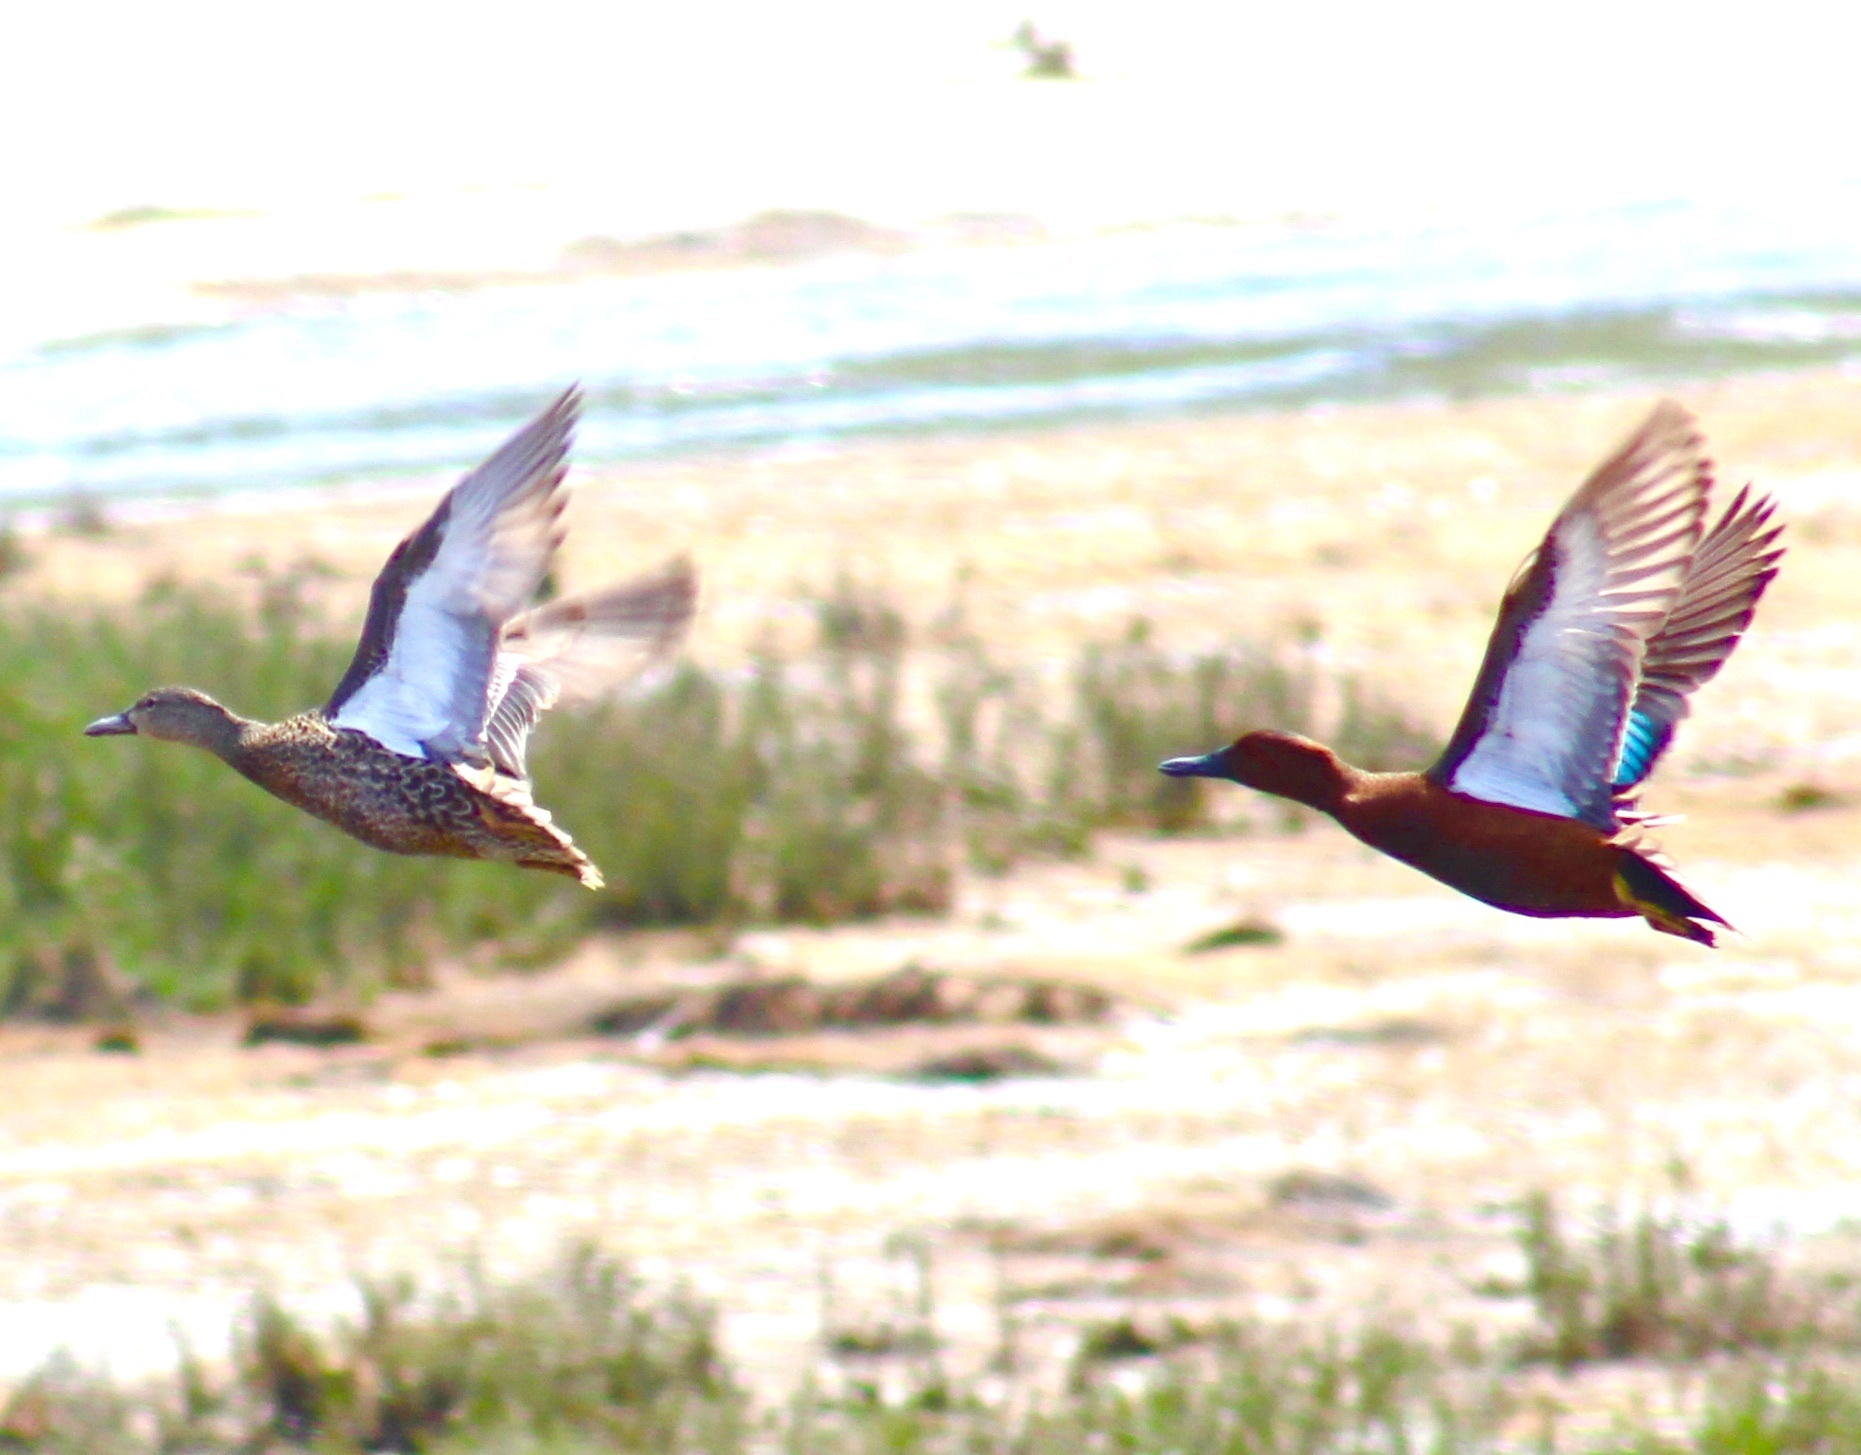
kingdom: Animalia
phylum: Chordata
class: Aves
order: Anseriformes
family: Anatidae
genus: Spatula
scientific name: Spatula cyanoptera
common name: Cinnamon teal
